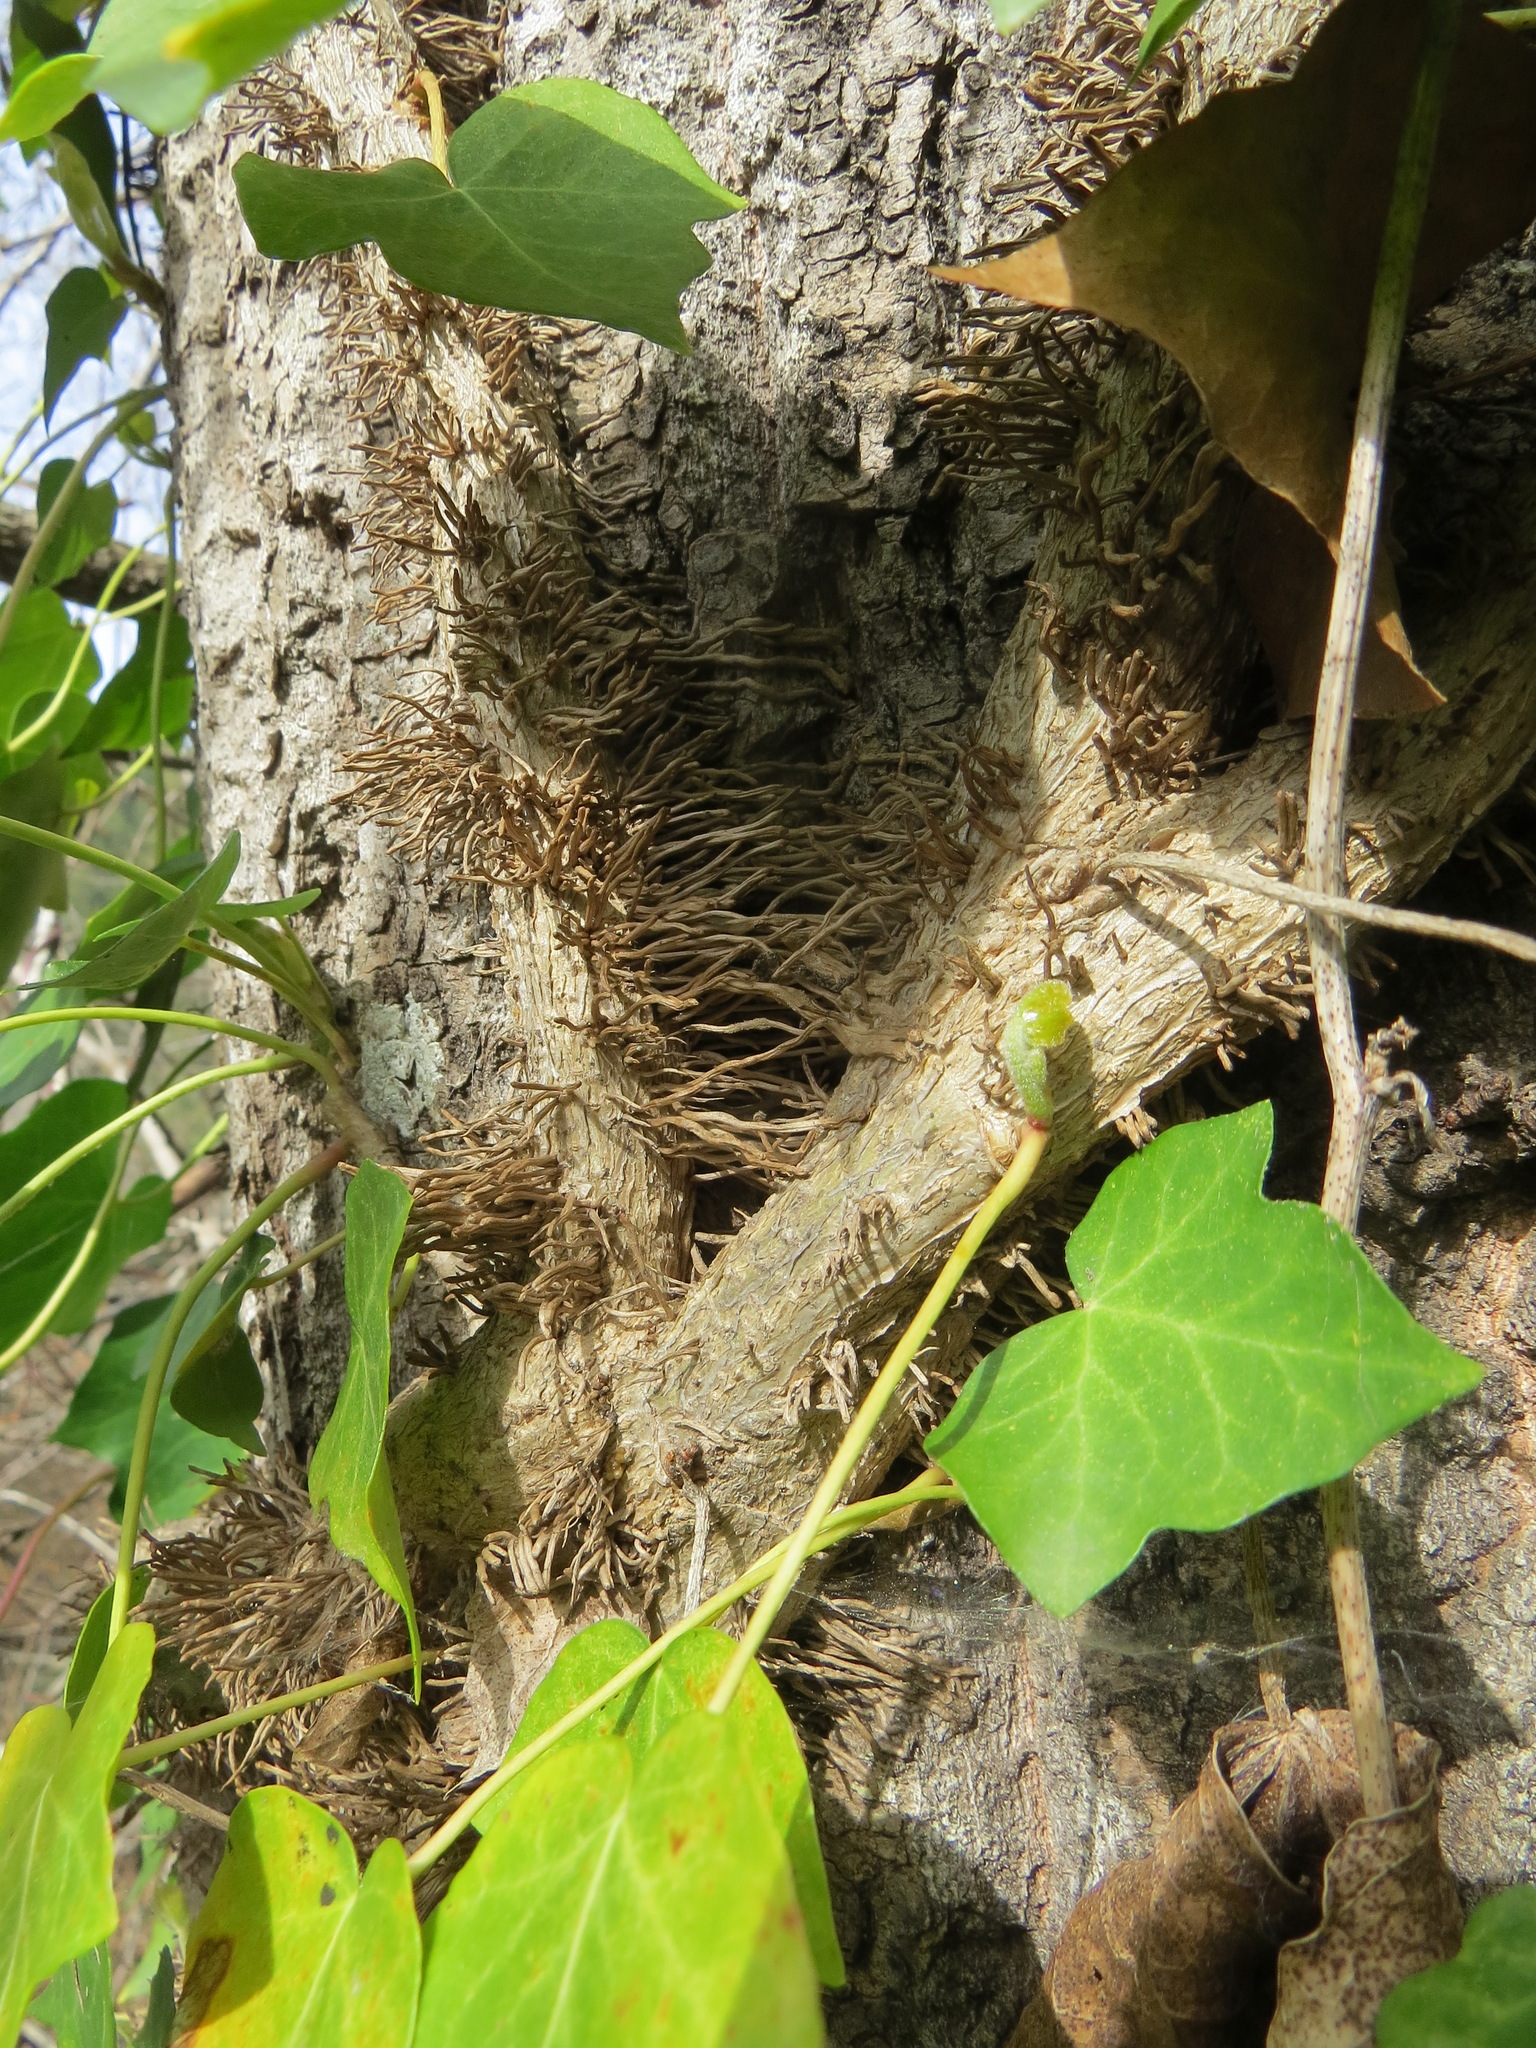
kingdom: Plantae
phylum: Tracheophyta
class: Magnoliopsida
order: Apiales
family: Araliaceae
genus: Hedera
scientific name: Hedera helix
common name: Ivy
